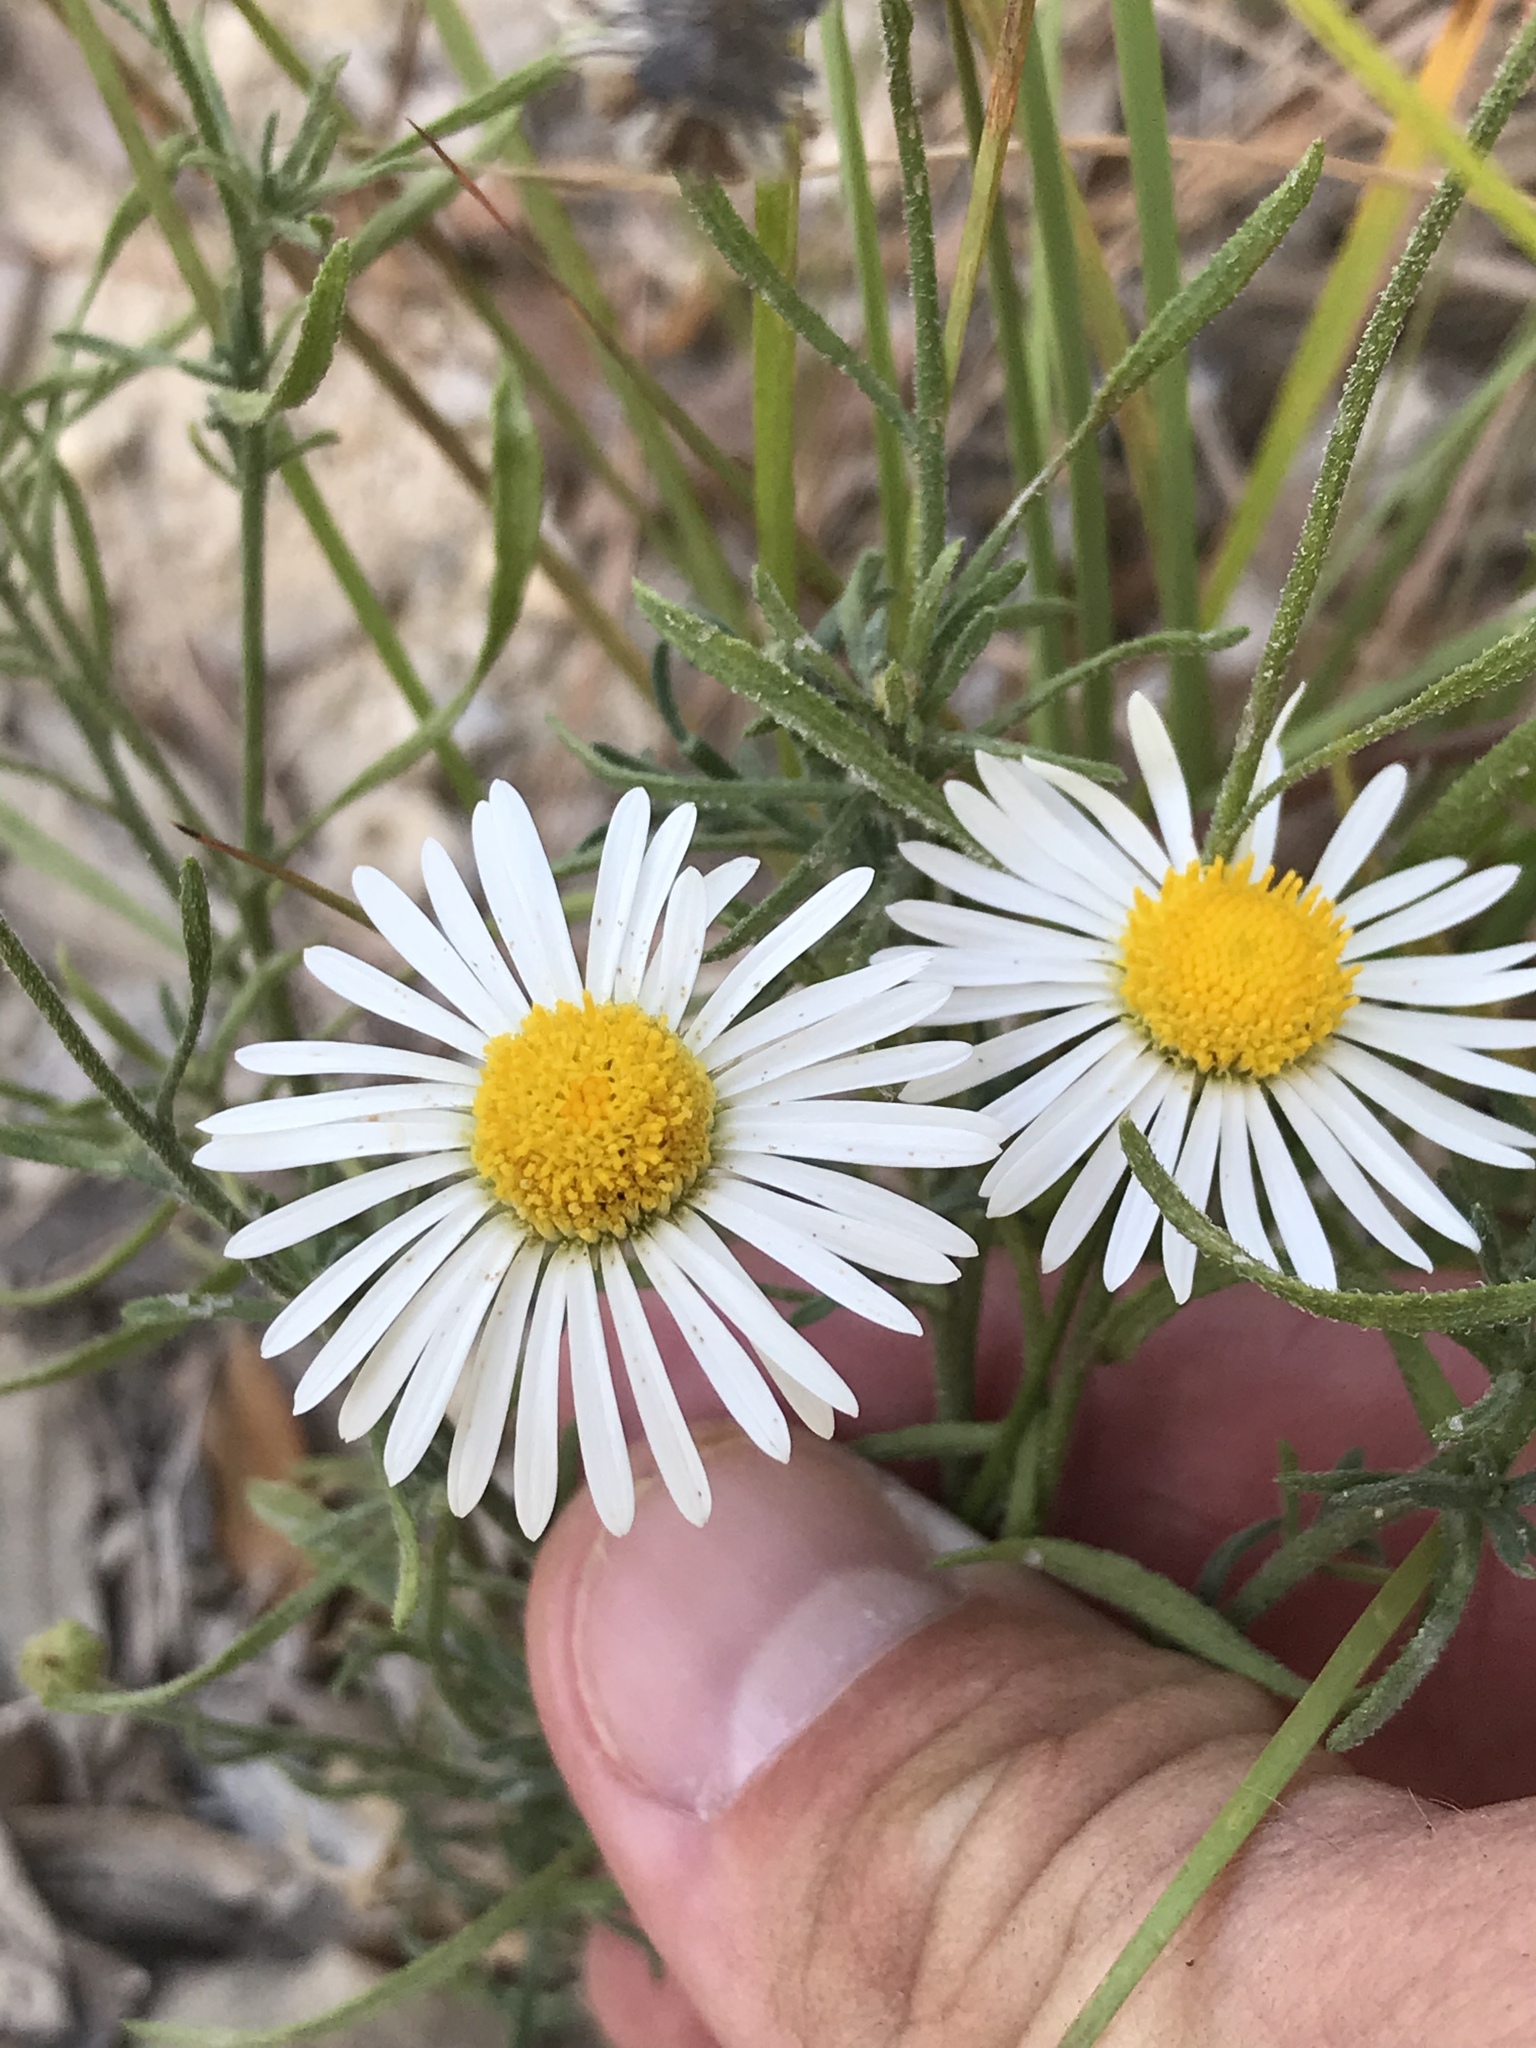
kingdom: Plantae
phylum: Tracheophyta
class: Magnoliopsida
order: Asterales
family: Asteraceae
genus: Erigeron
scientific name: Erigeron modestus
